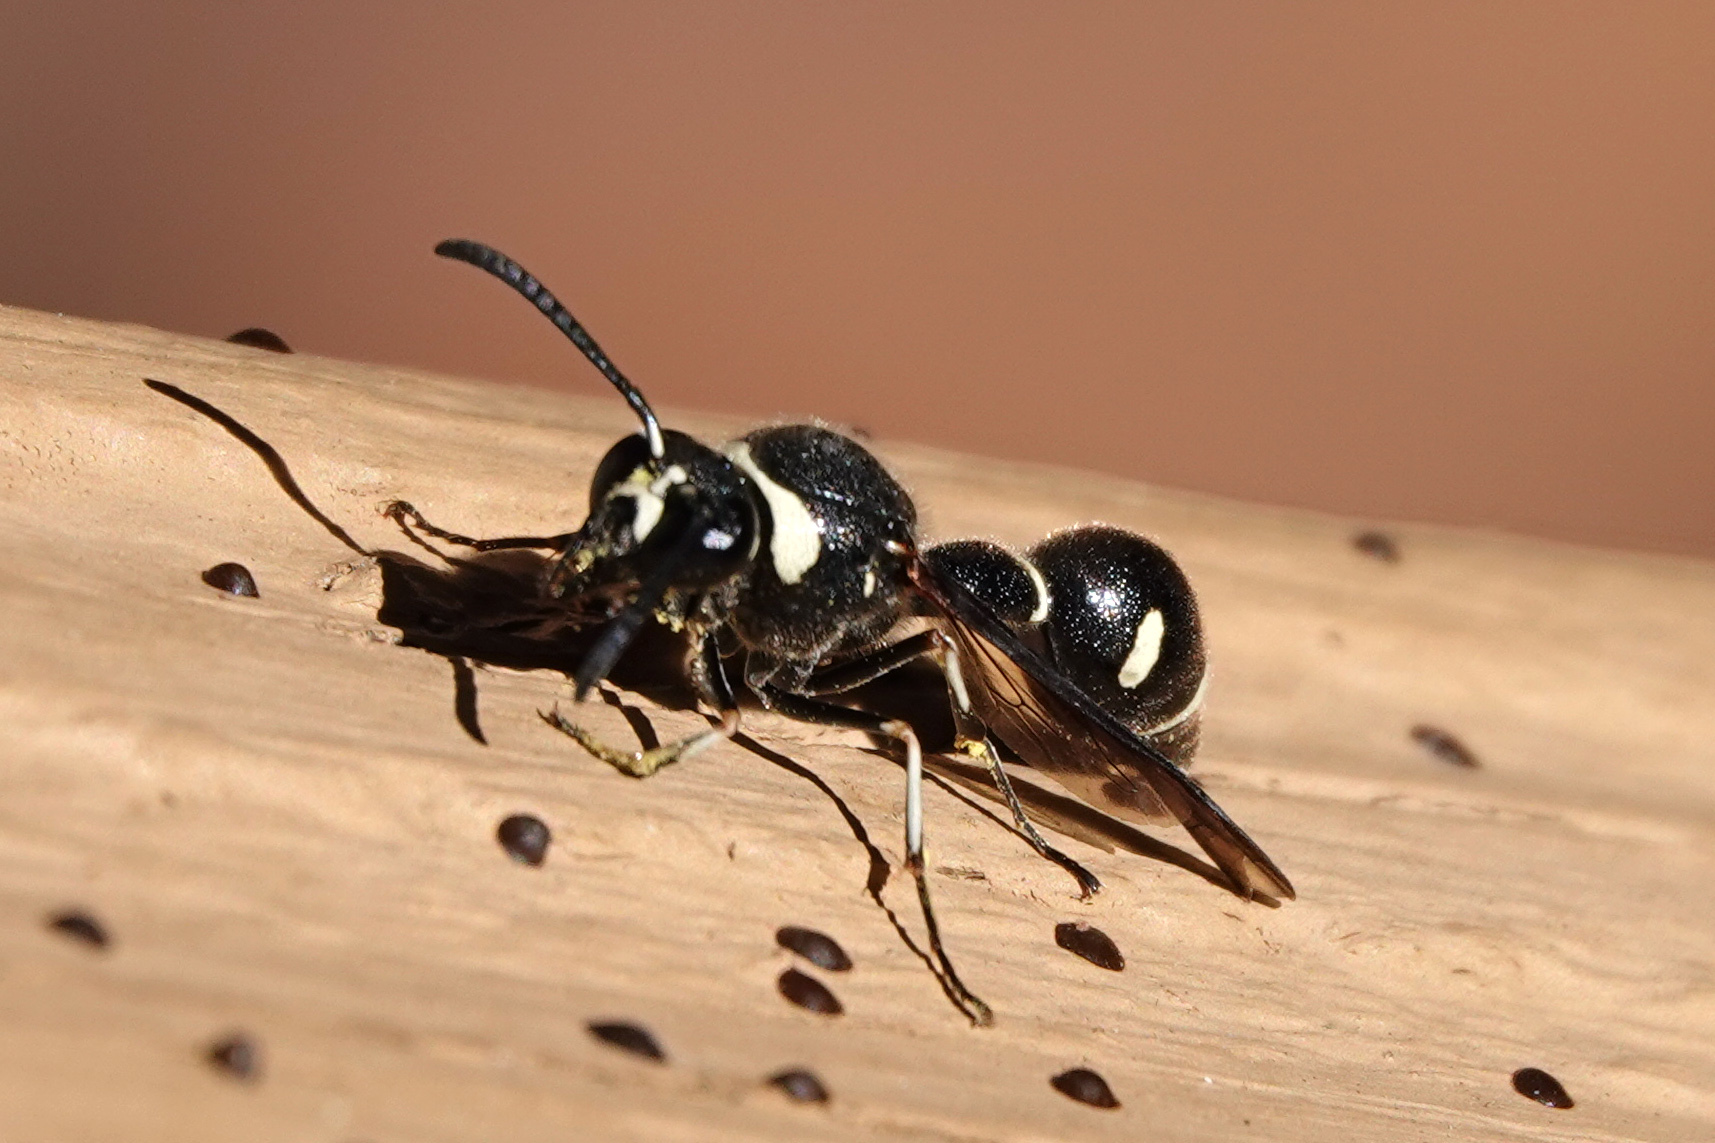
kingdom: Animalia
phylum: Arthropoda
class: Insecta
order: Hymenoptera
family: Vespidae
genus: Eumenes
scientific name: Eumenes fraternus
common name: Fraternal potter wasp
